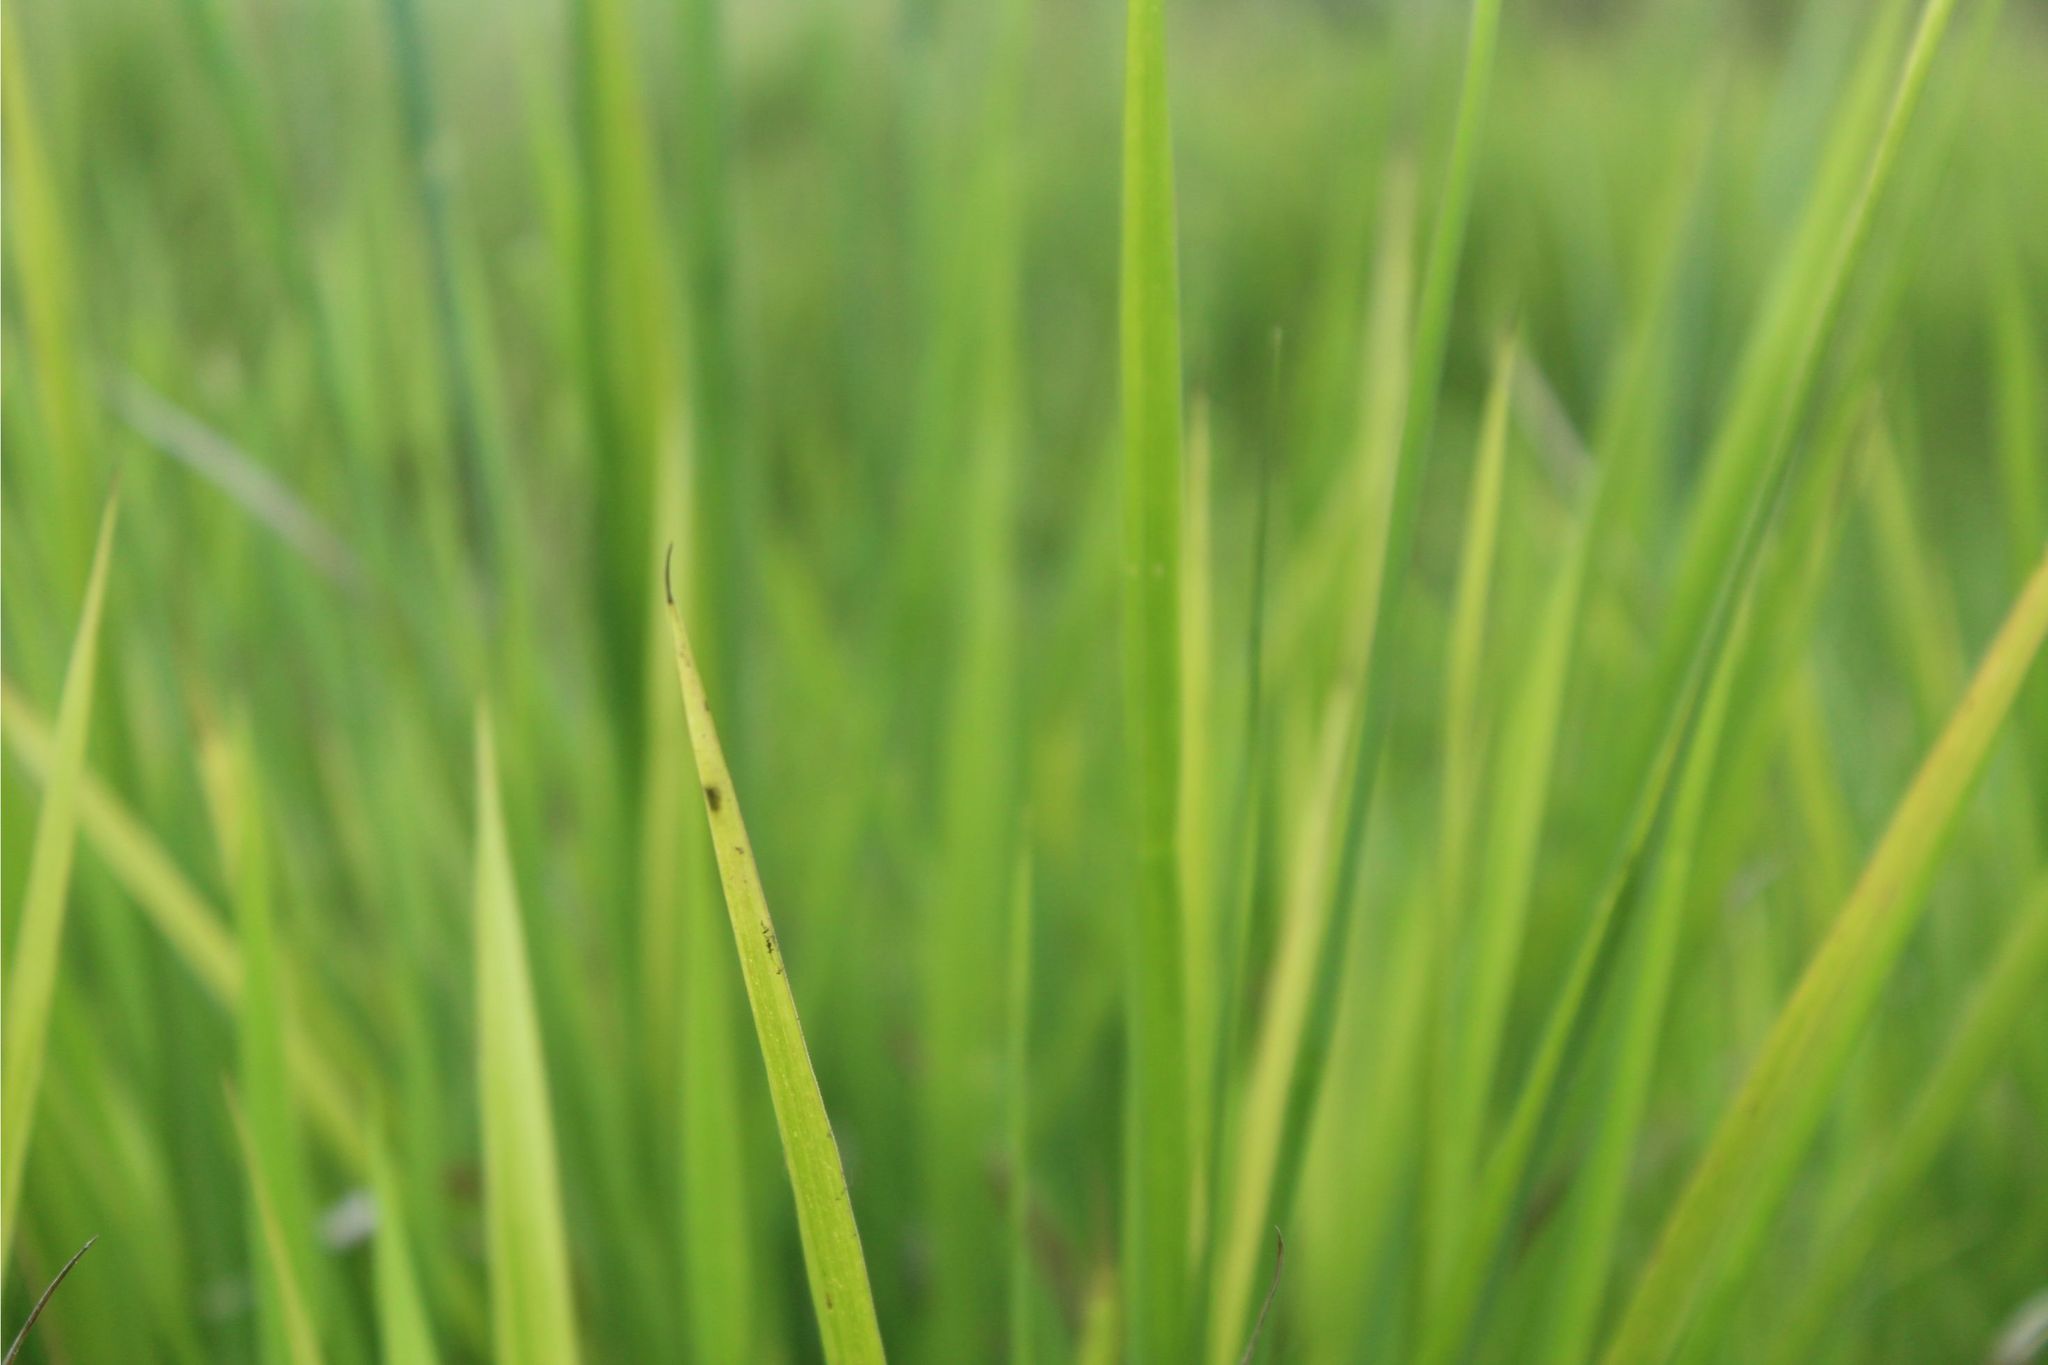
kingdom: Plantae
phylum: Tracheophyta
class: Liliopsida
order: Poales
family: Poaceae
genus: Megathyrsus
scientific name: Megathyrsus maximus
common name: Guineagrass
